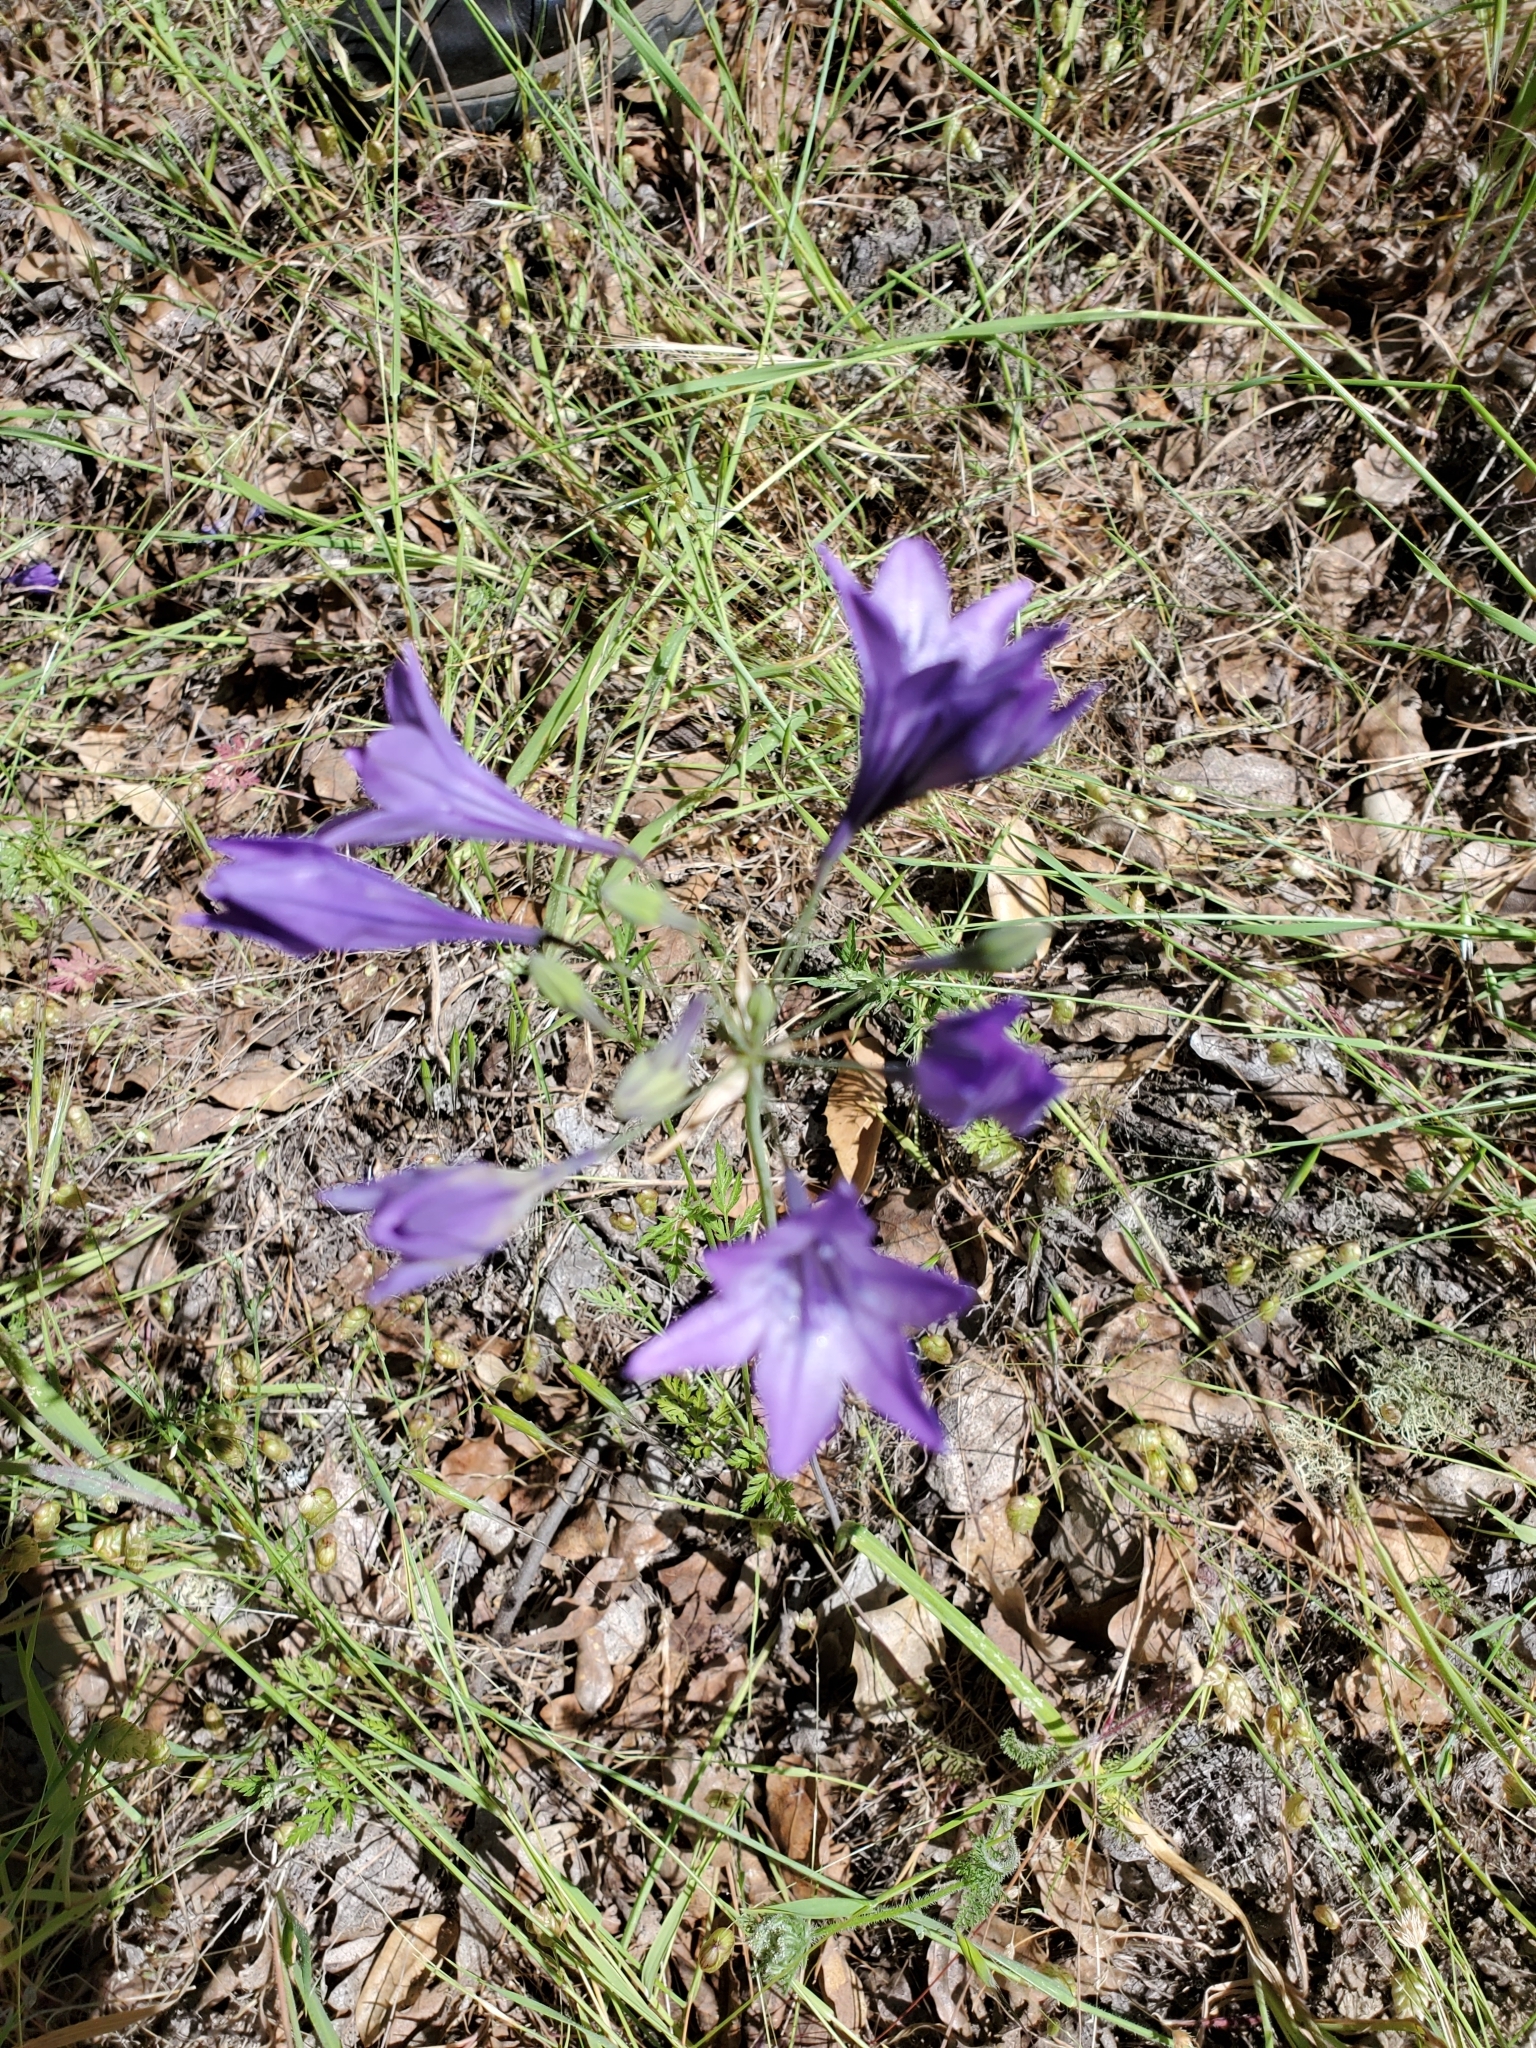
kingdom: Plantae
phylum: Tracheophyta
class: Liliopsida
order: Asparagales
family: Asparagaceae
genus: Triteleia
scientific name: Triteleia laxa
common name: Triplet-lily
